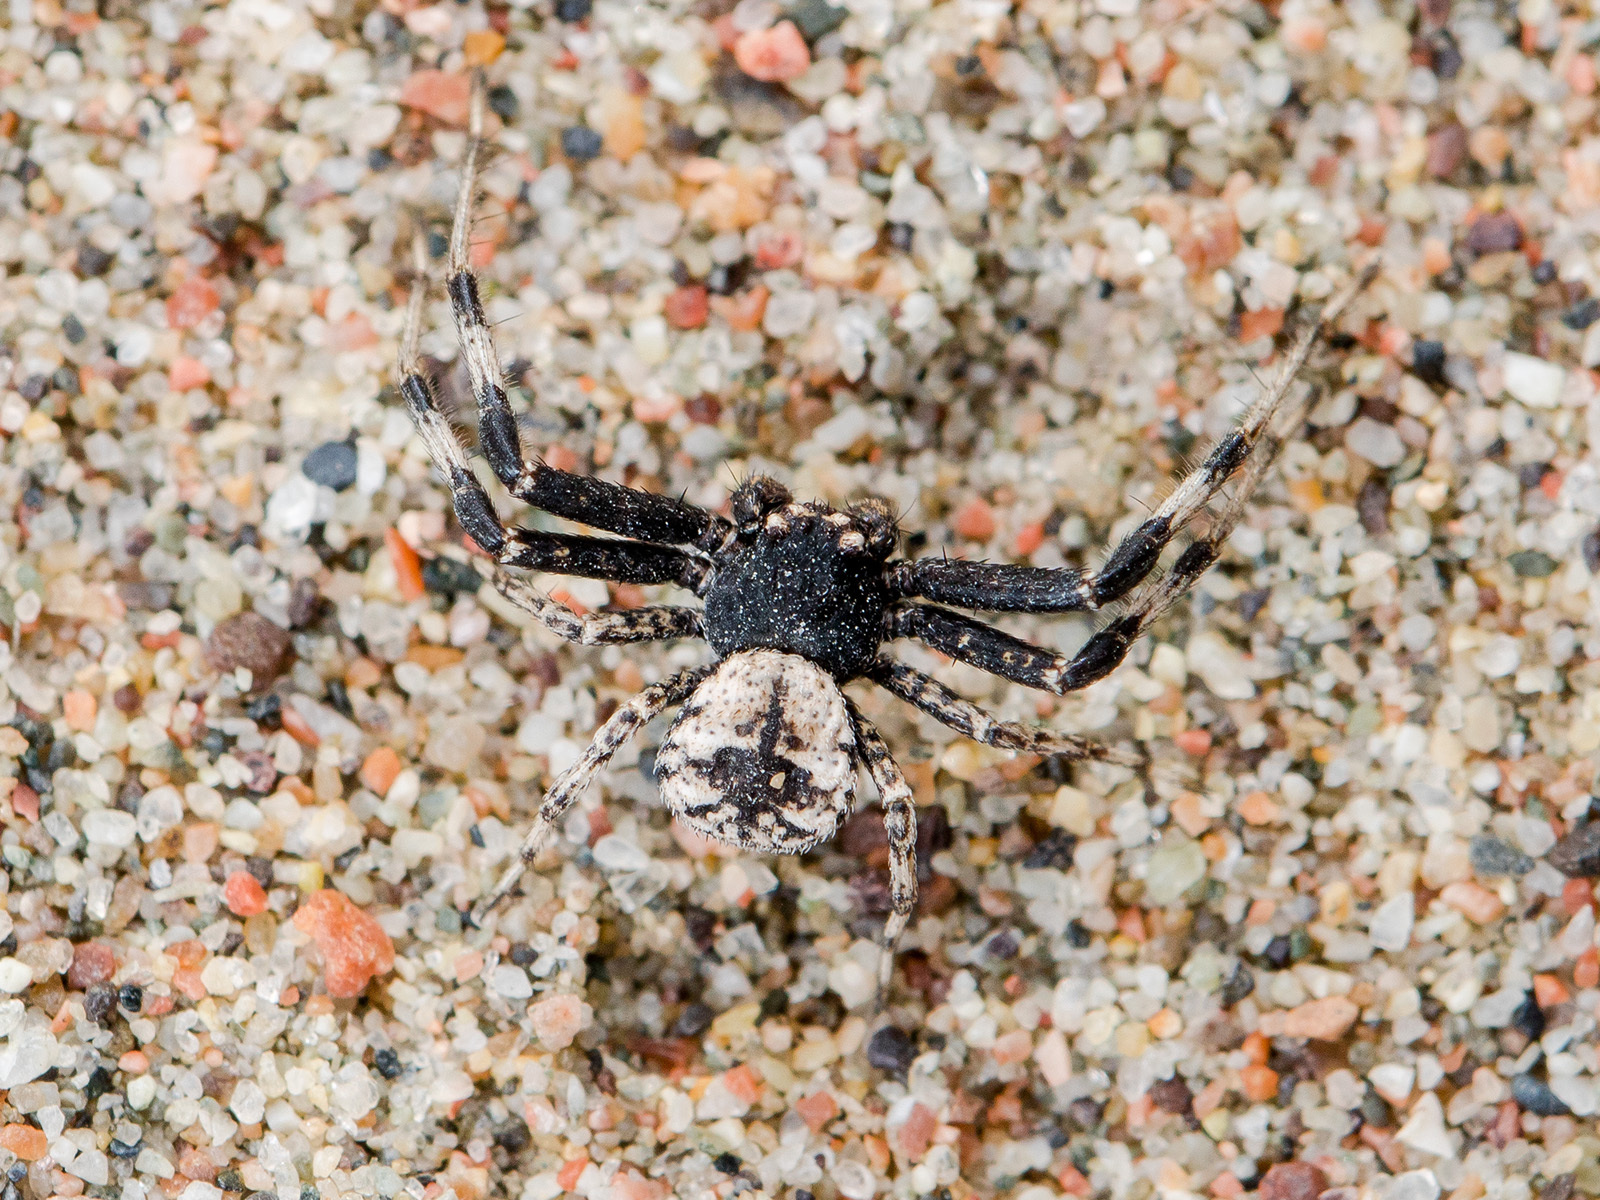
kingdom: Animalia
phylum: Arthropoda
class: Arachnida
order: Araneae
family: Thomisidae
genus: Ozyptila
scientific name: Ozyptila tuberosa
